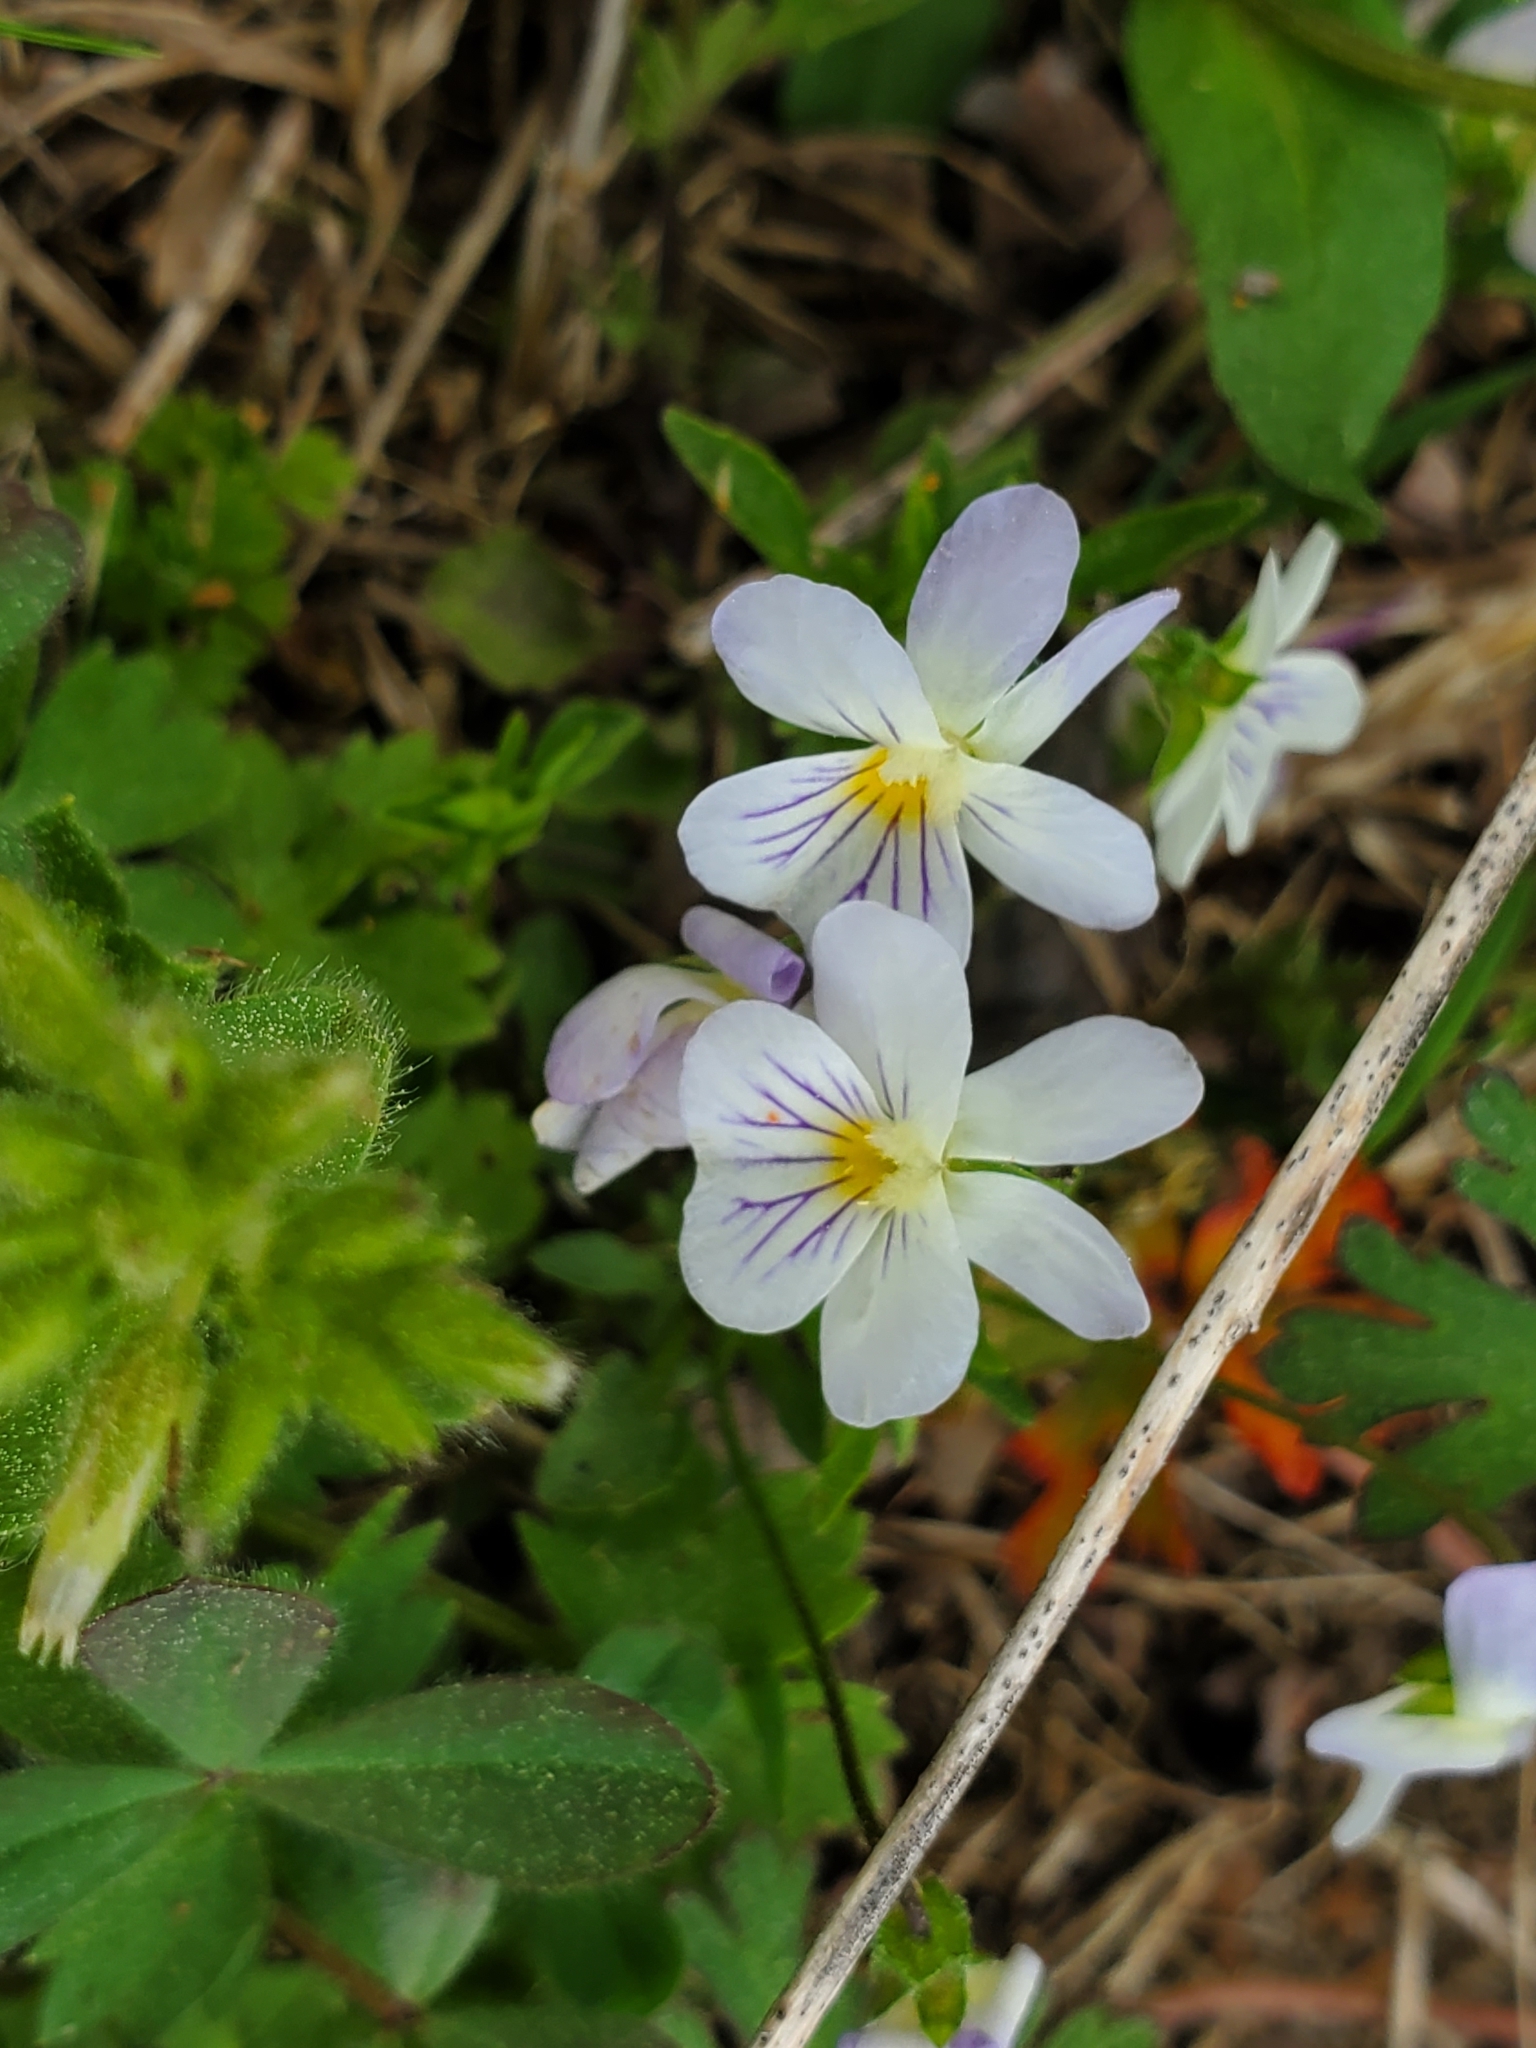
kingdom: Plantae
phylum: Tracheophyta
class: Magnoliopsida
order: Malpighiales
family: Violaceae
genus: Viola
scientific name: Viola rafinesquei
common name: American field pansy
